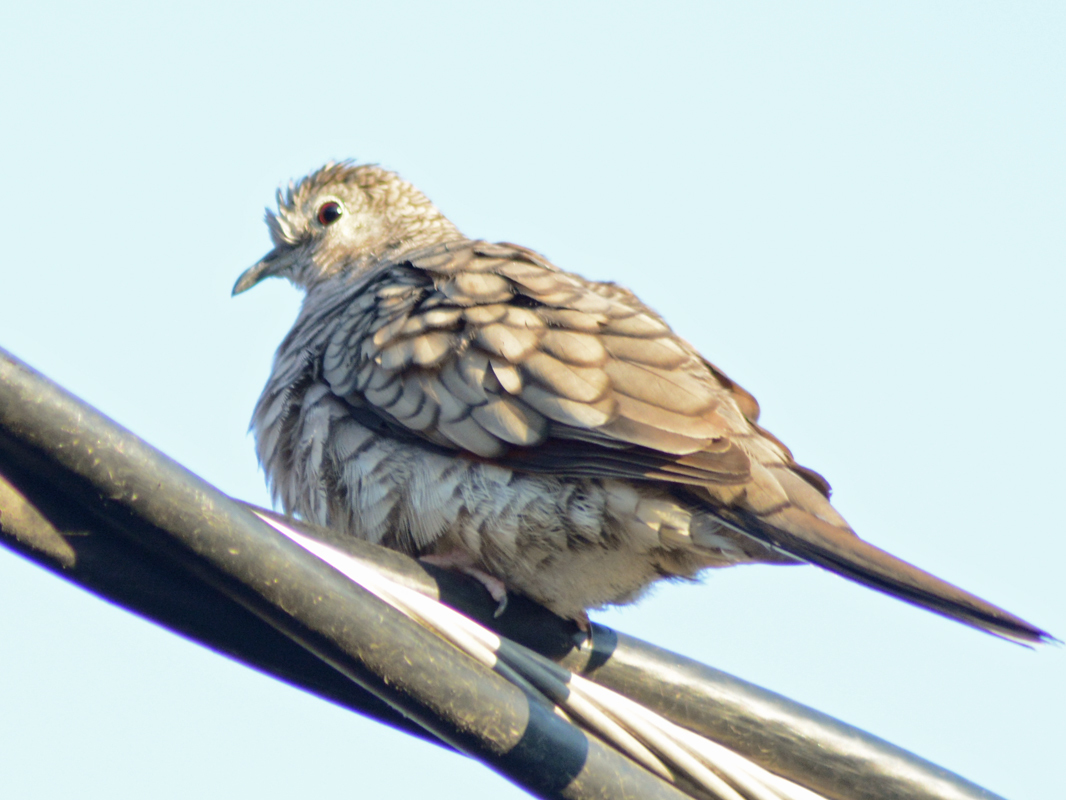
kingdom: Animalia
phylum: Chordata
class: Aves
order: Columbiformes
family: Columbidae
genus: Columbina
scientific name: Columbina inca
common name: Inca dove
